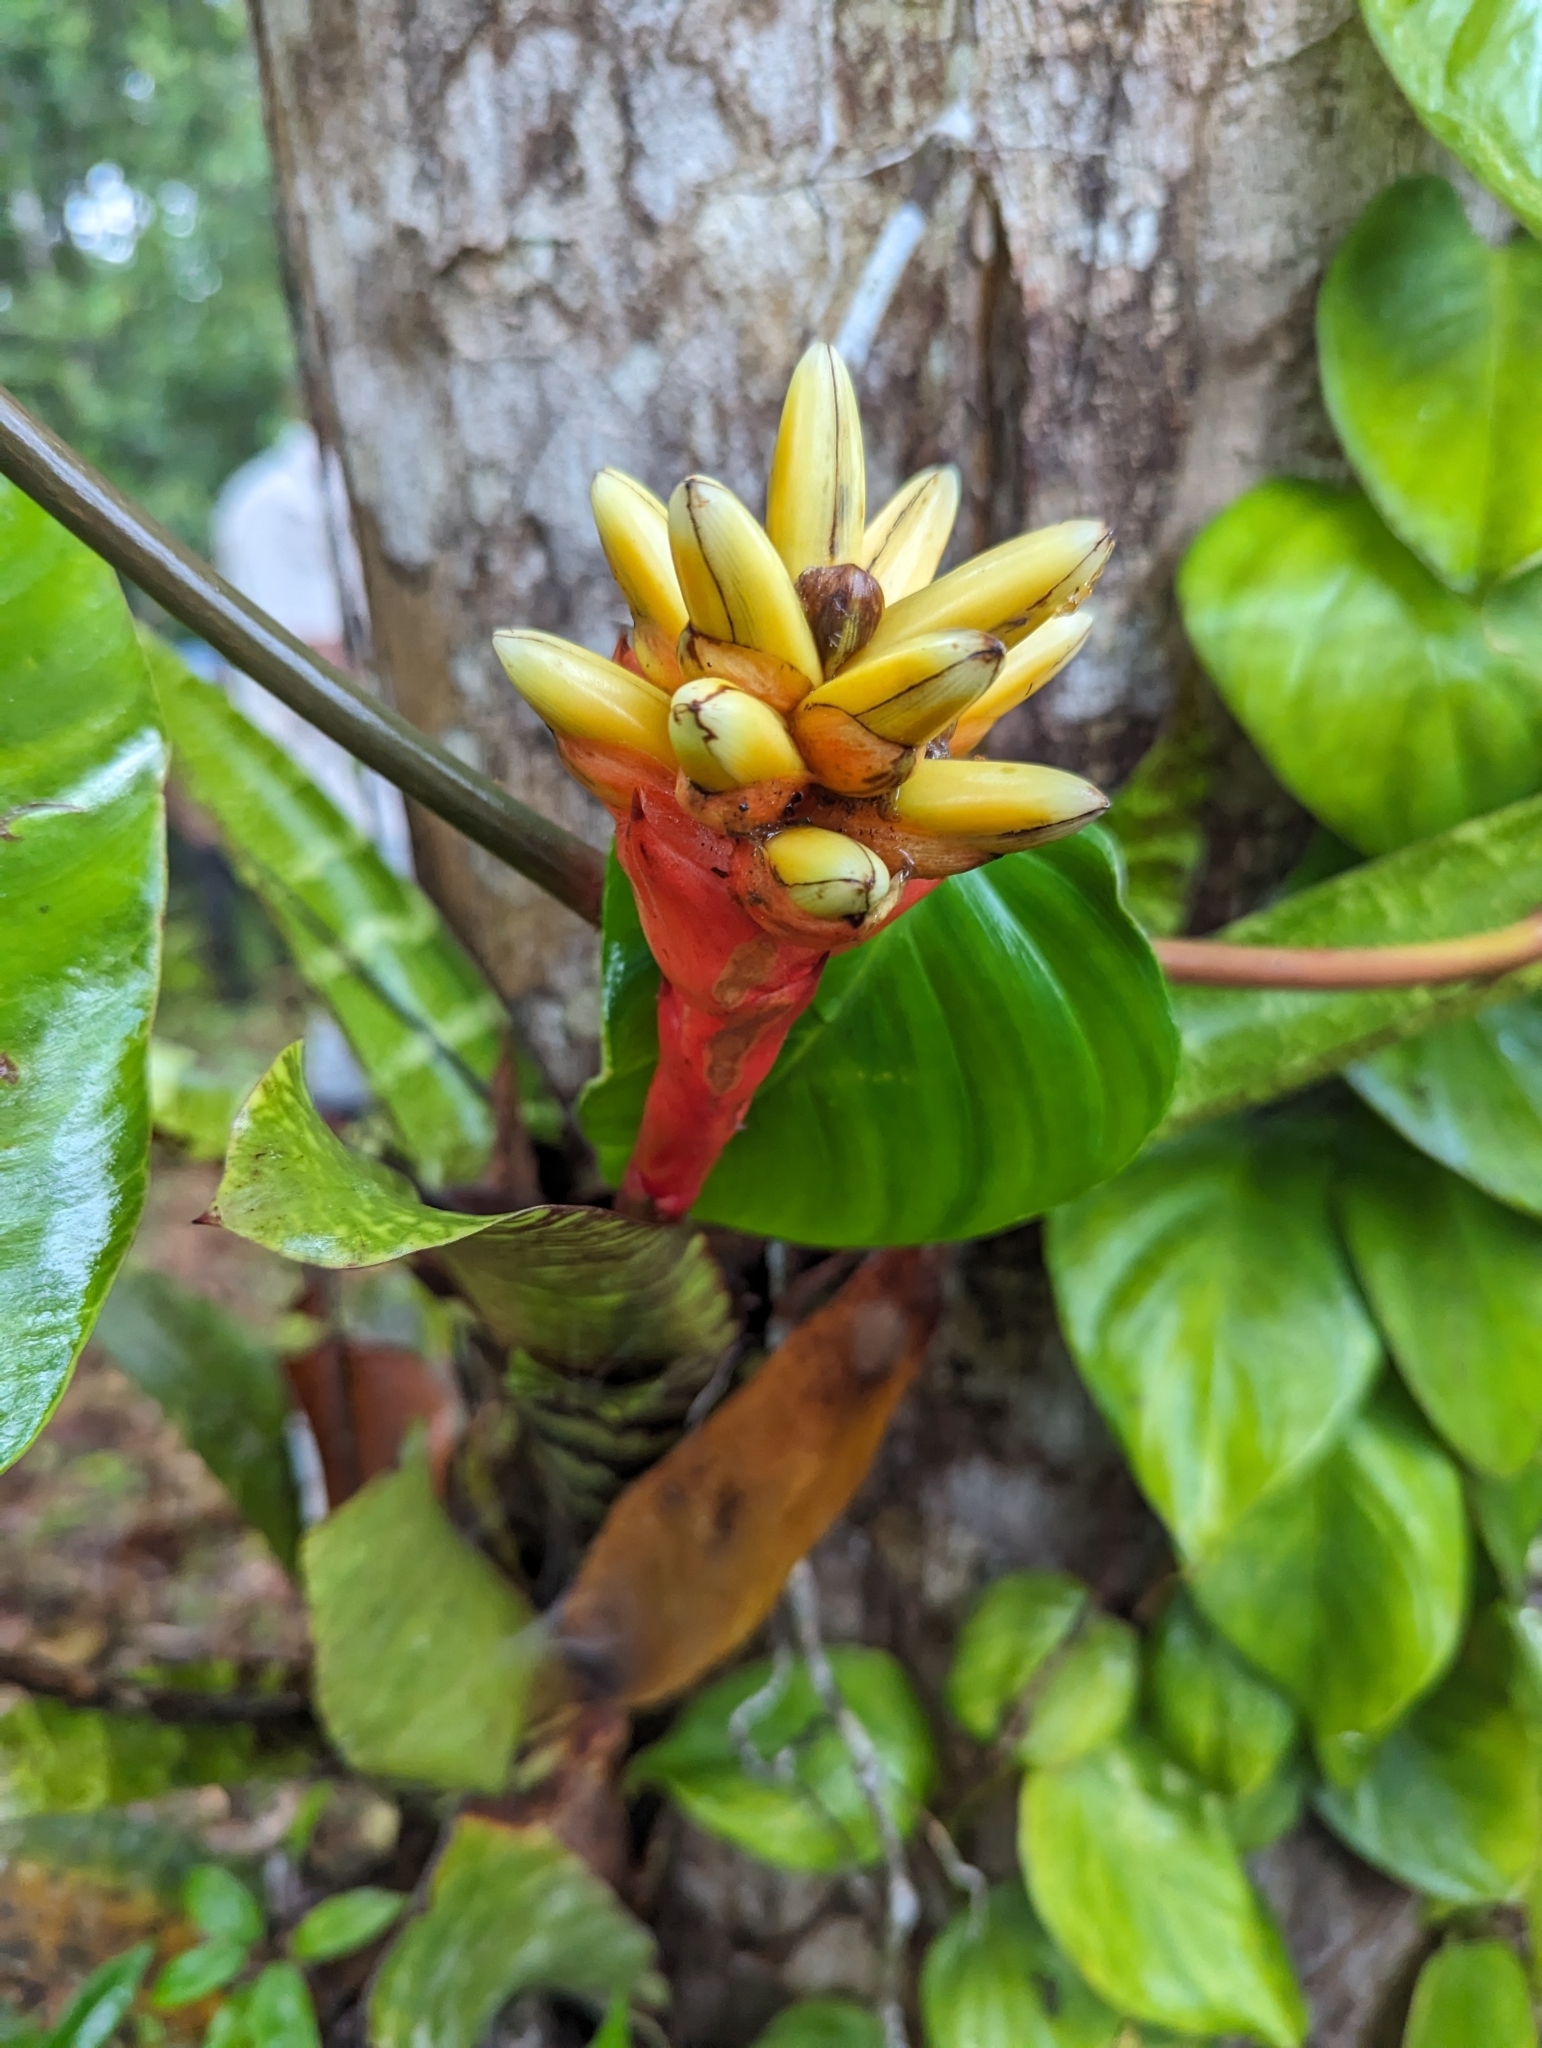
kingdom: Plantae
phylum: Tracheophyta
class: Liliopsida
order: Poales
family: Bromeliaceae
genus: Guzmania
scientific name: Guzmania musaica
